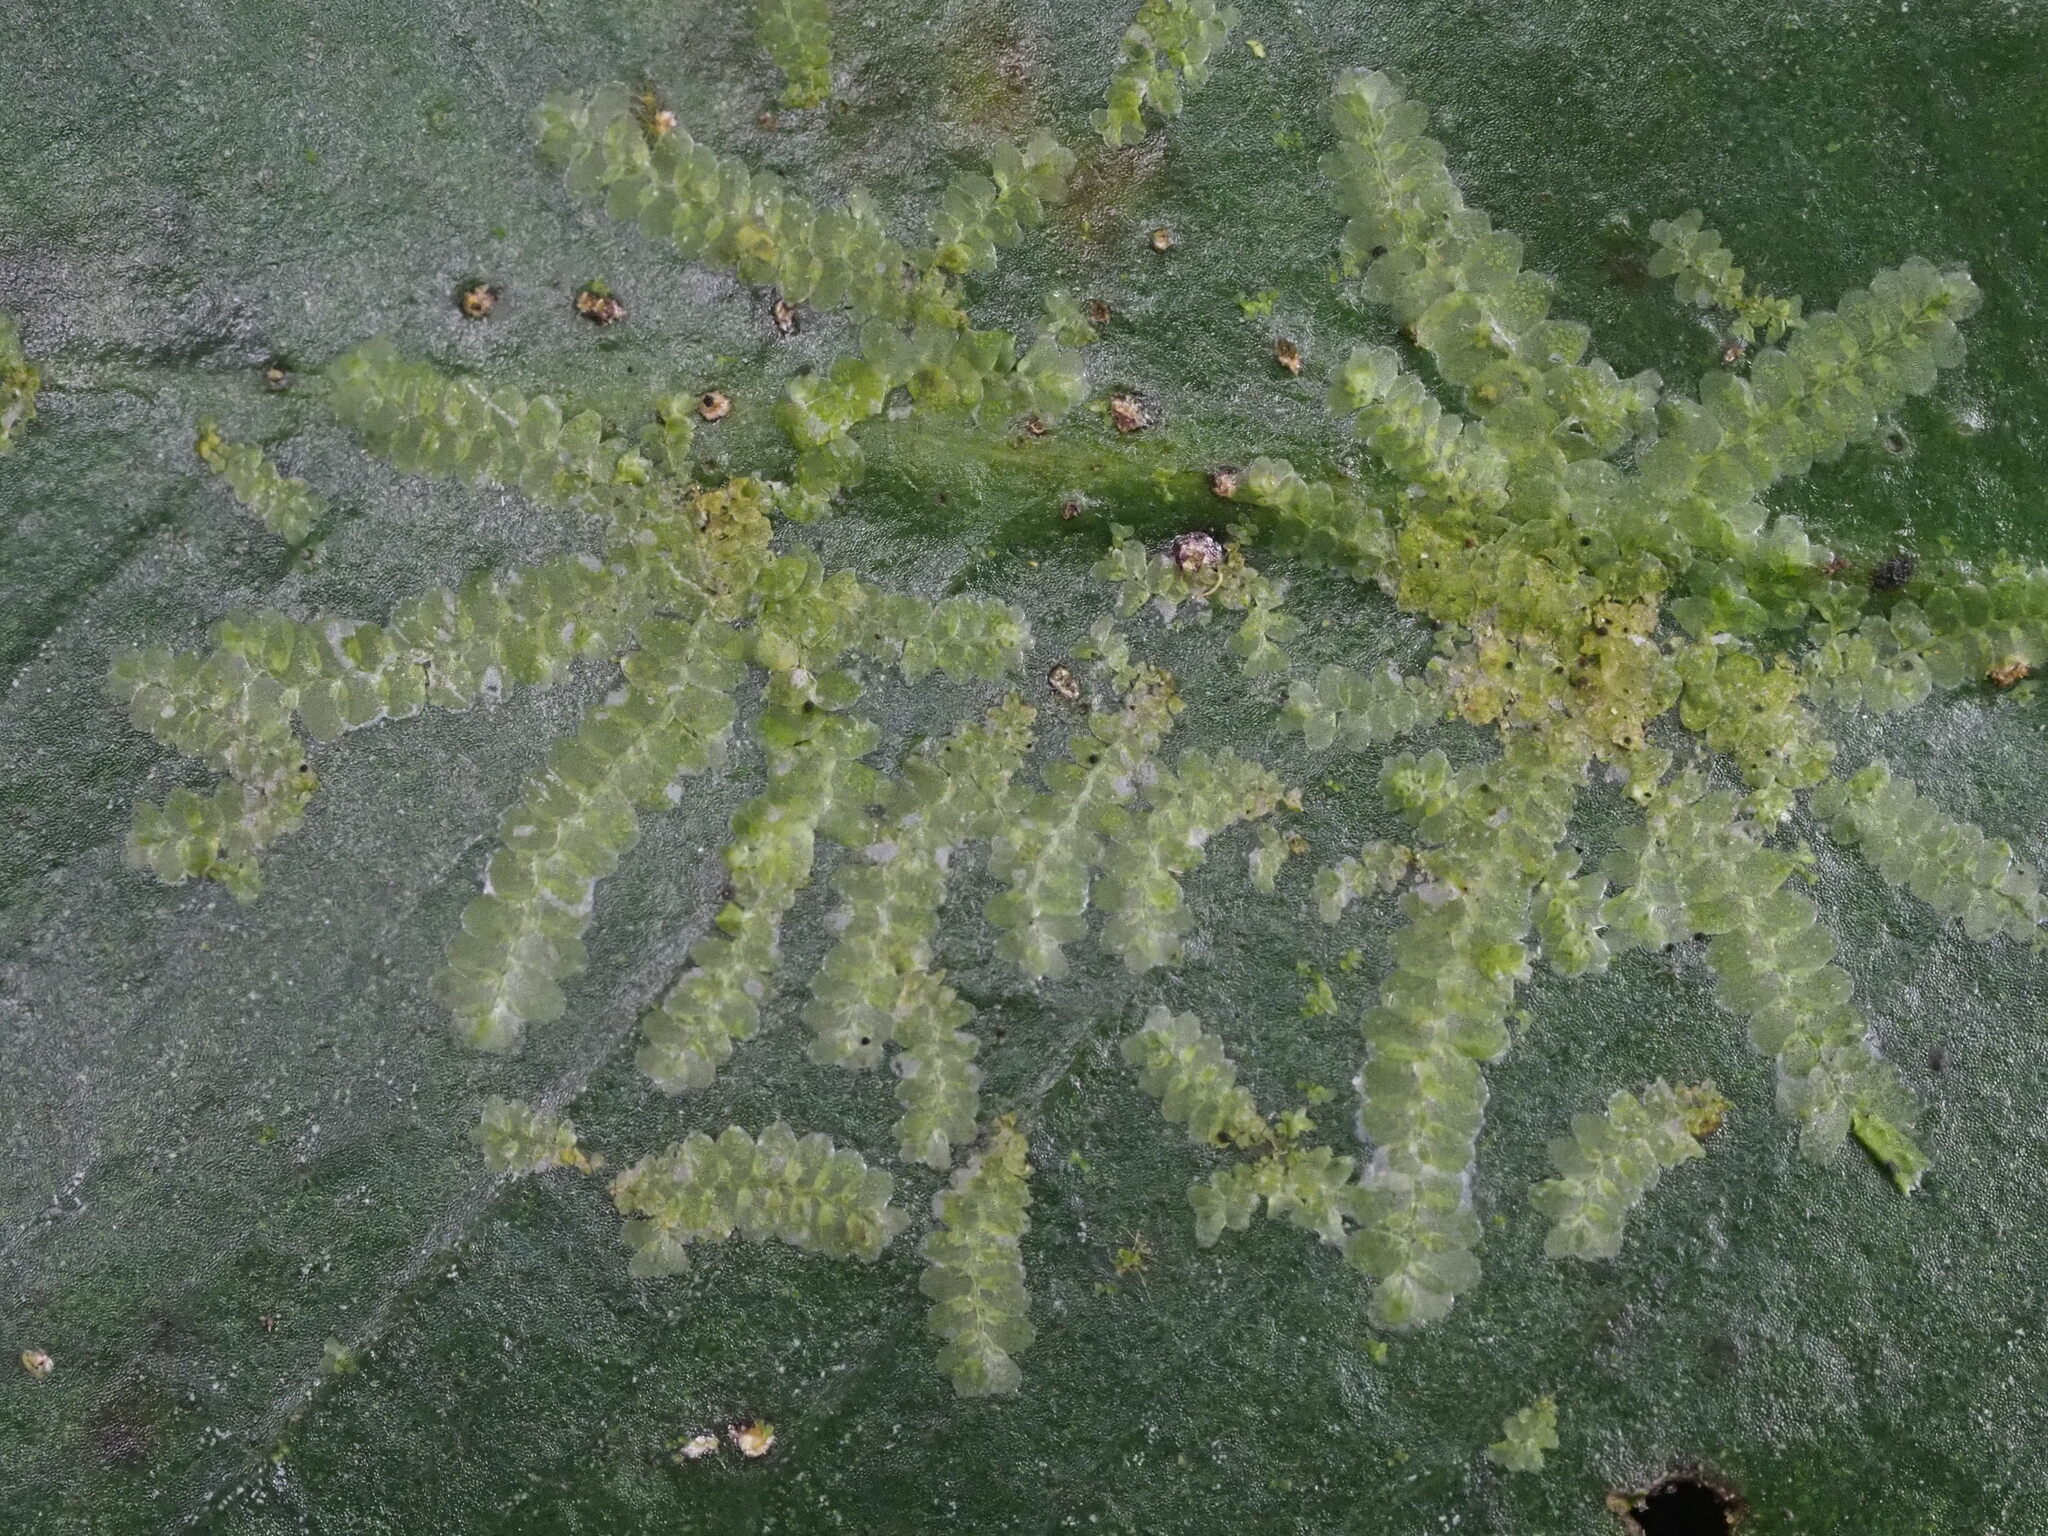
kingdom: Plantae
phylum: Marchantiophyta
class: Jungermanniopsida
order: Porellales
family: Lejeuneaceae
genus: Cololejeunea
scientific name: Cololejeunea planissima
